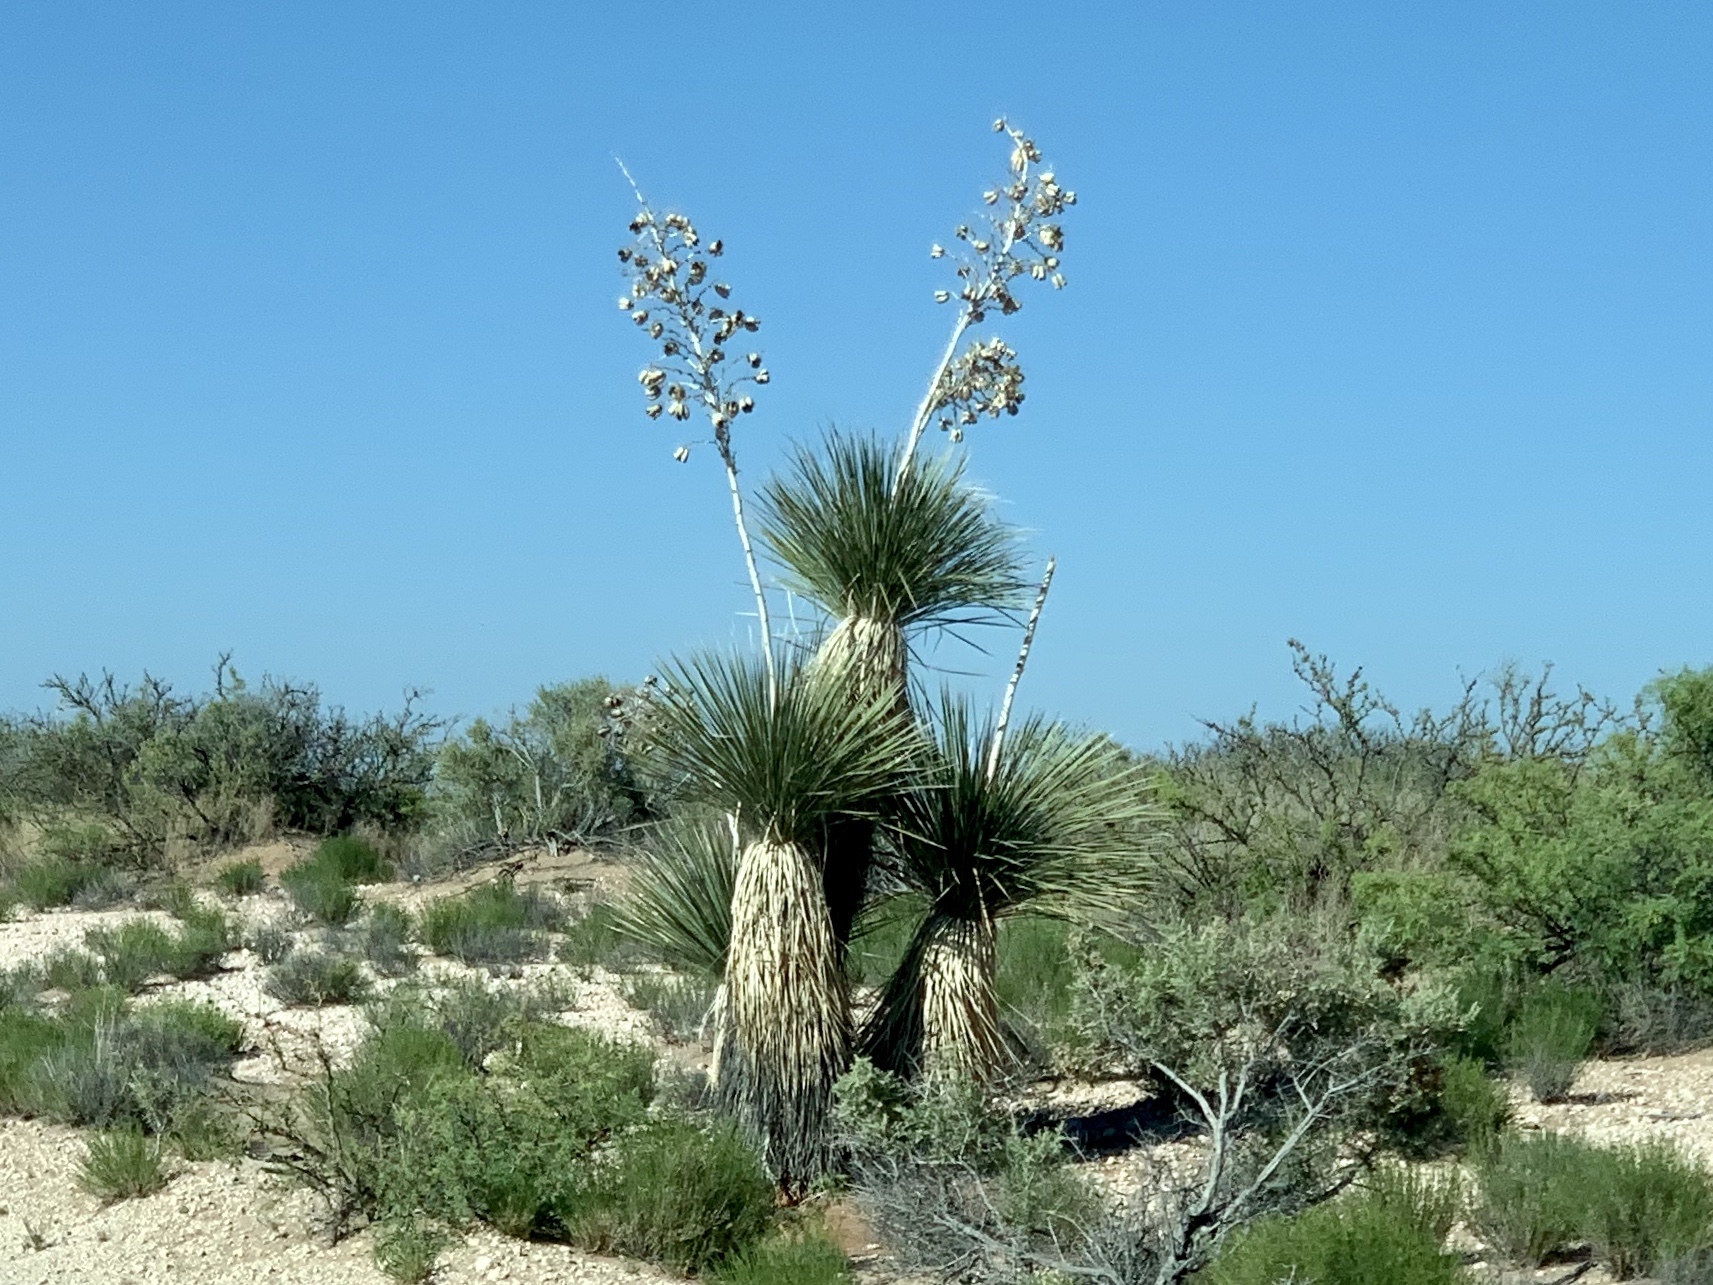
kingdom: Plantae
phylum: Tracheophyta
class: Liliopsida
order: Asparagales
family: Asparagaceae
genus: Yucca
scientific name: Yucca elata
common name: Palmella
